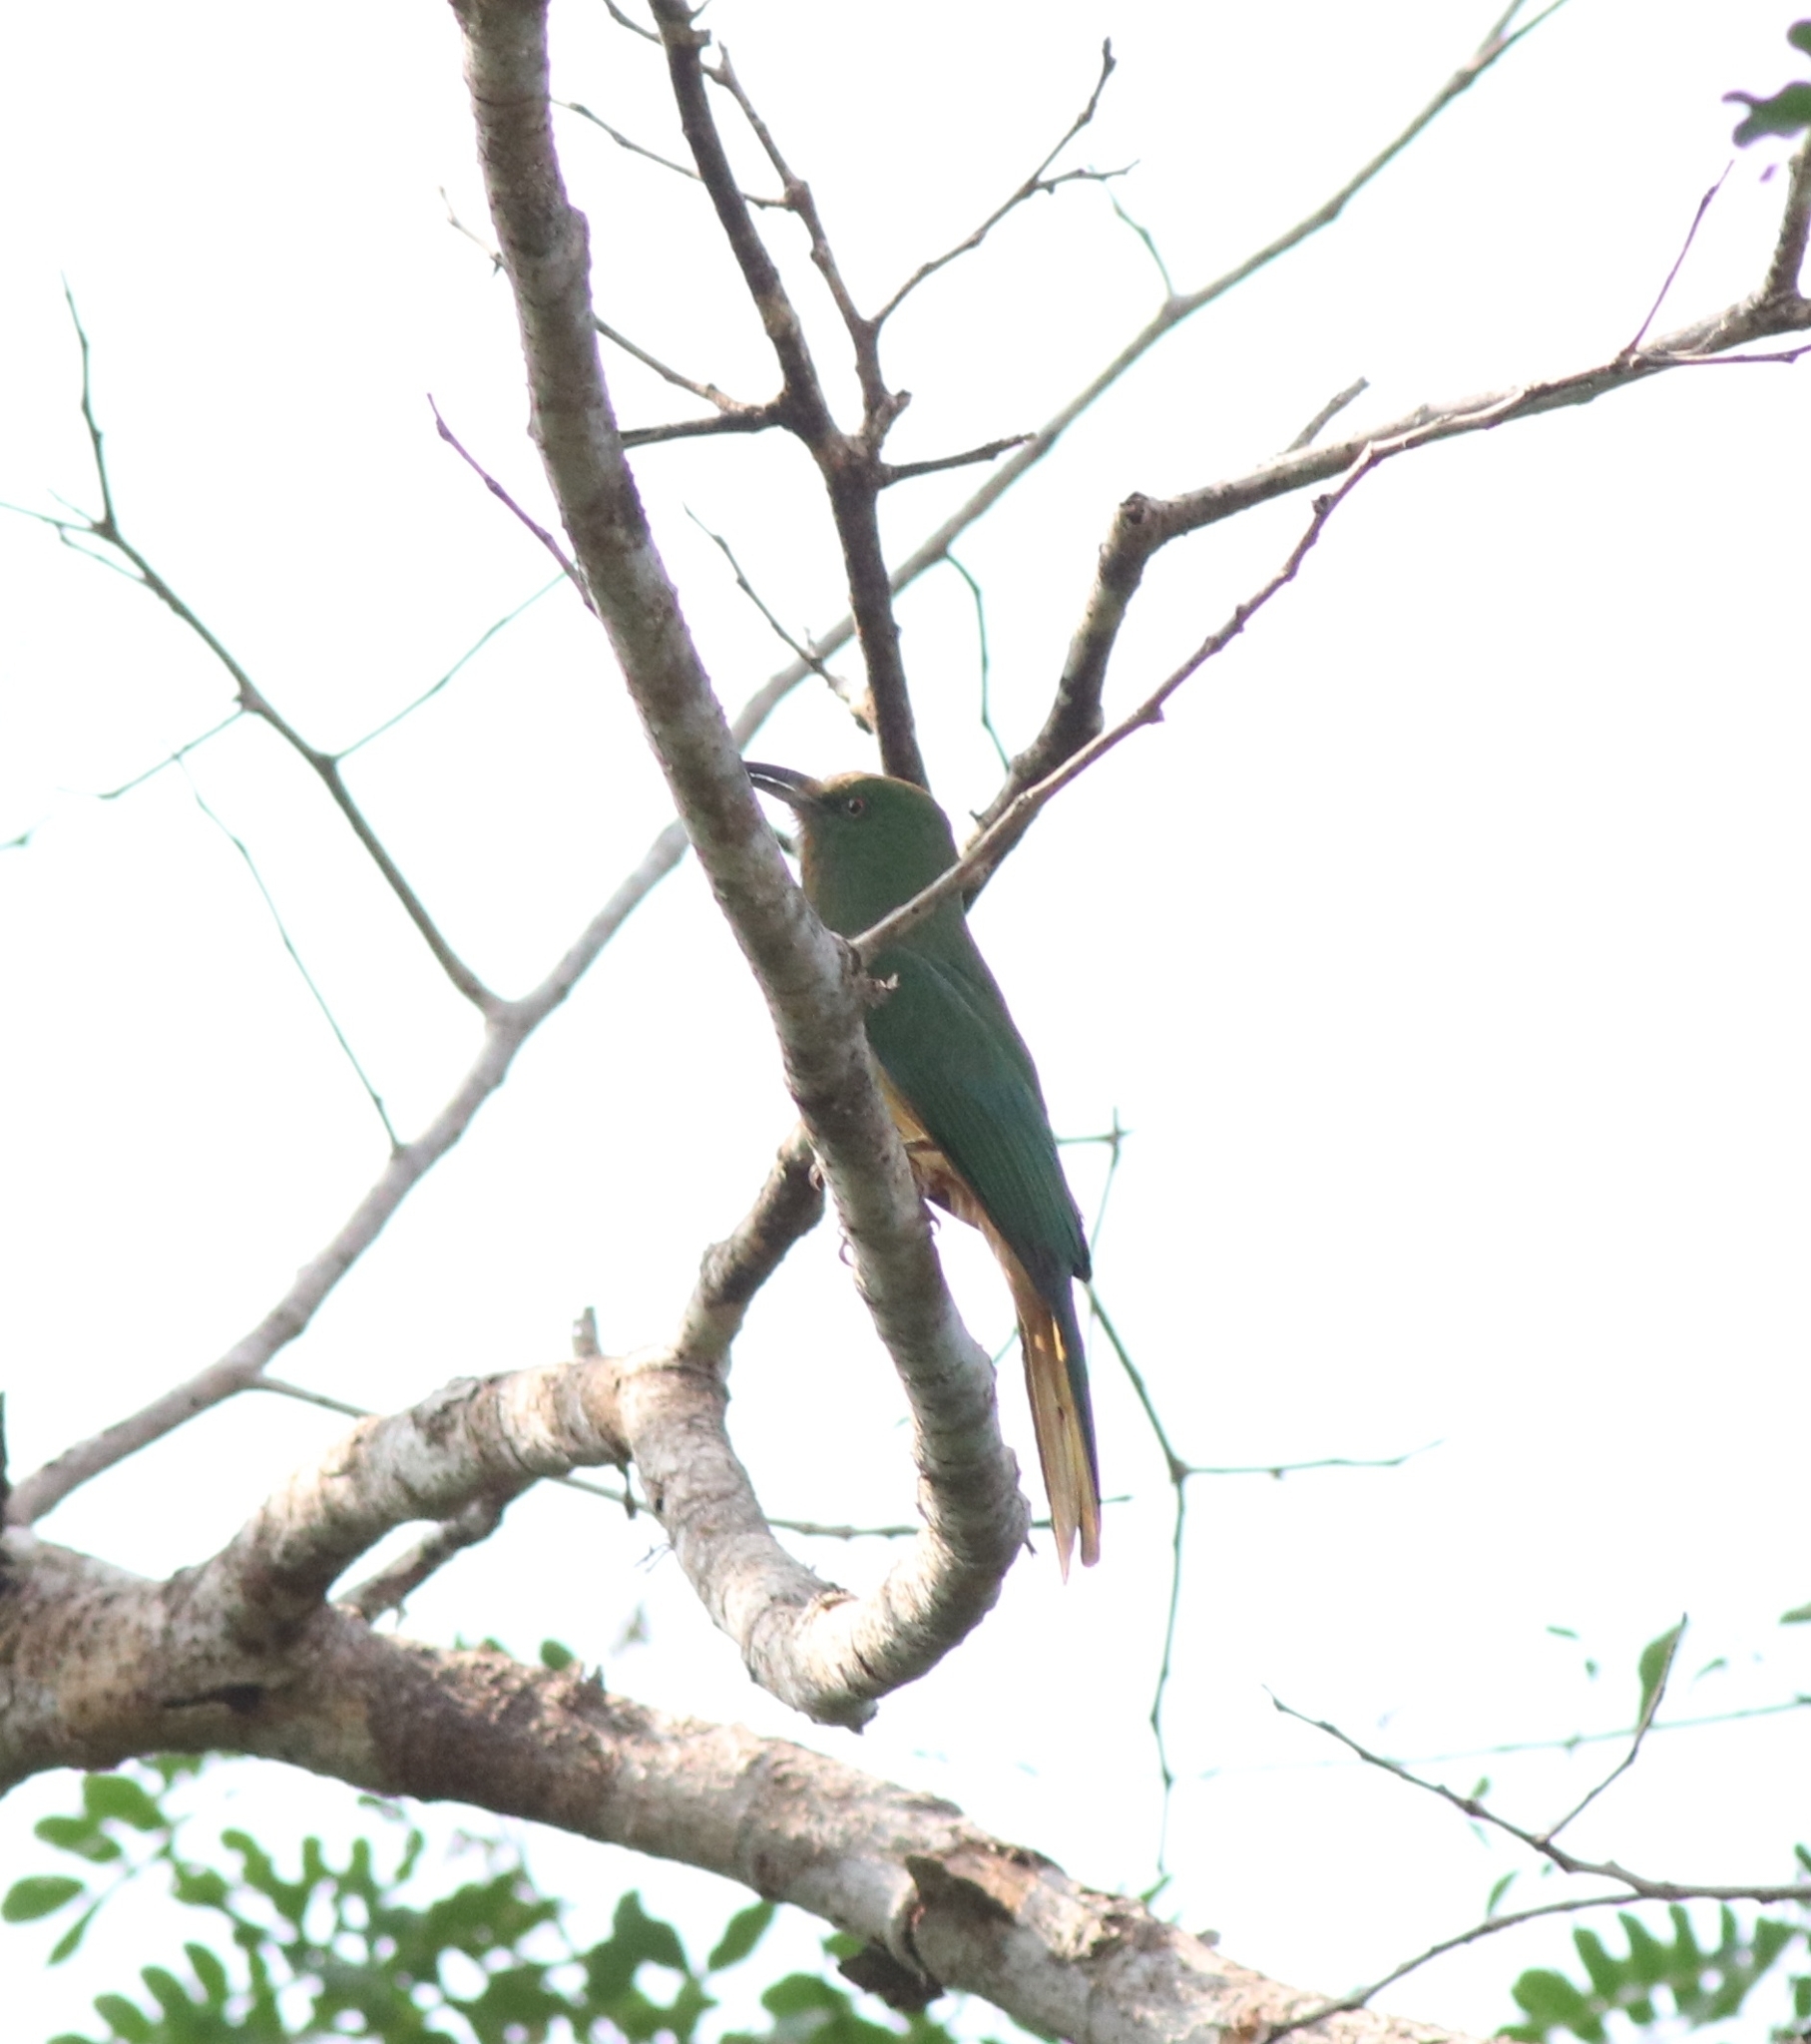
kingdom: Animalia
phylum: Chordata
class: Aves
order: Coraciiformes
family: Meropidae
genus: Nyctyornis
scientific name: Nyctyornis athertoni
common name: Blue-bearded bee-eater
